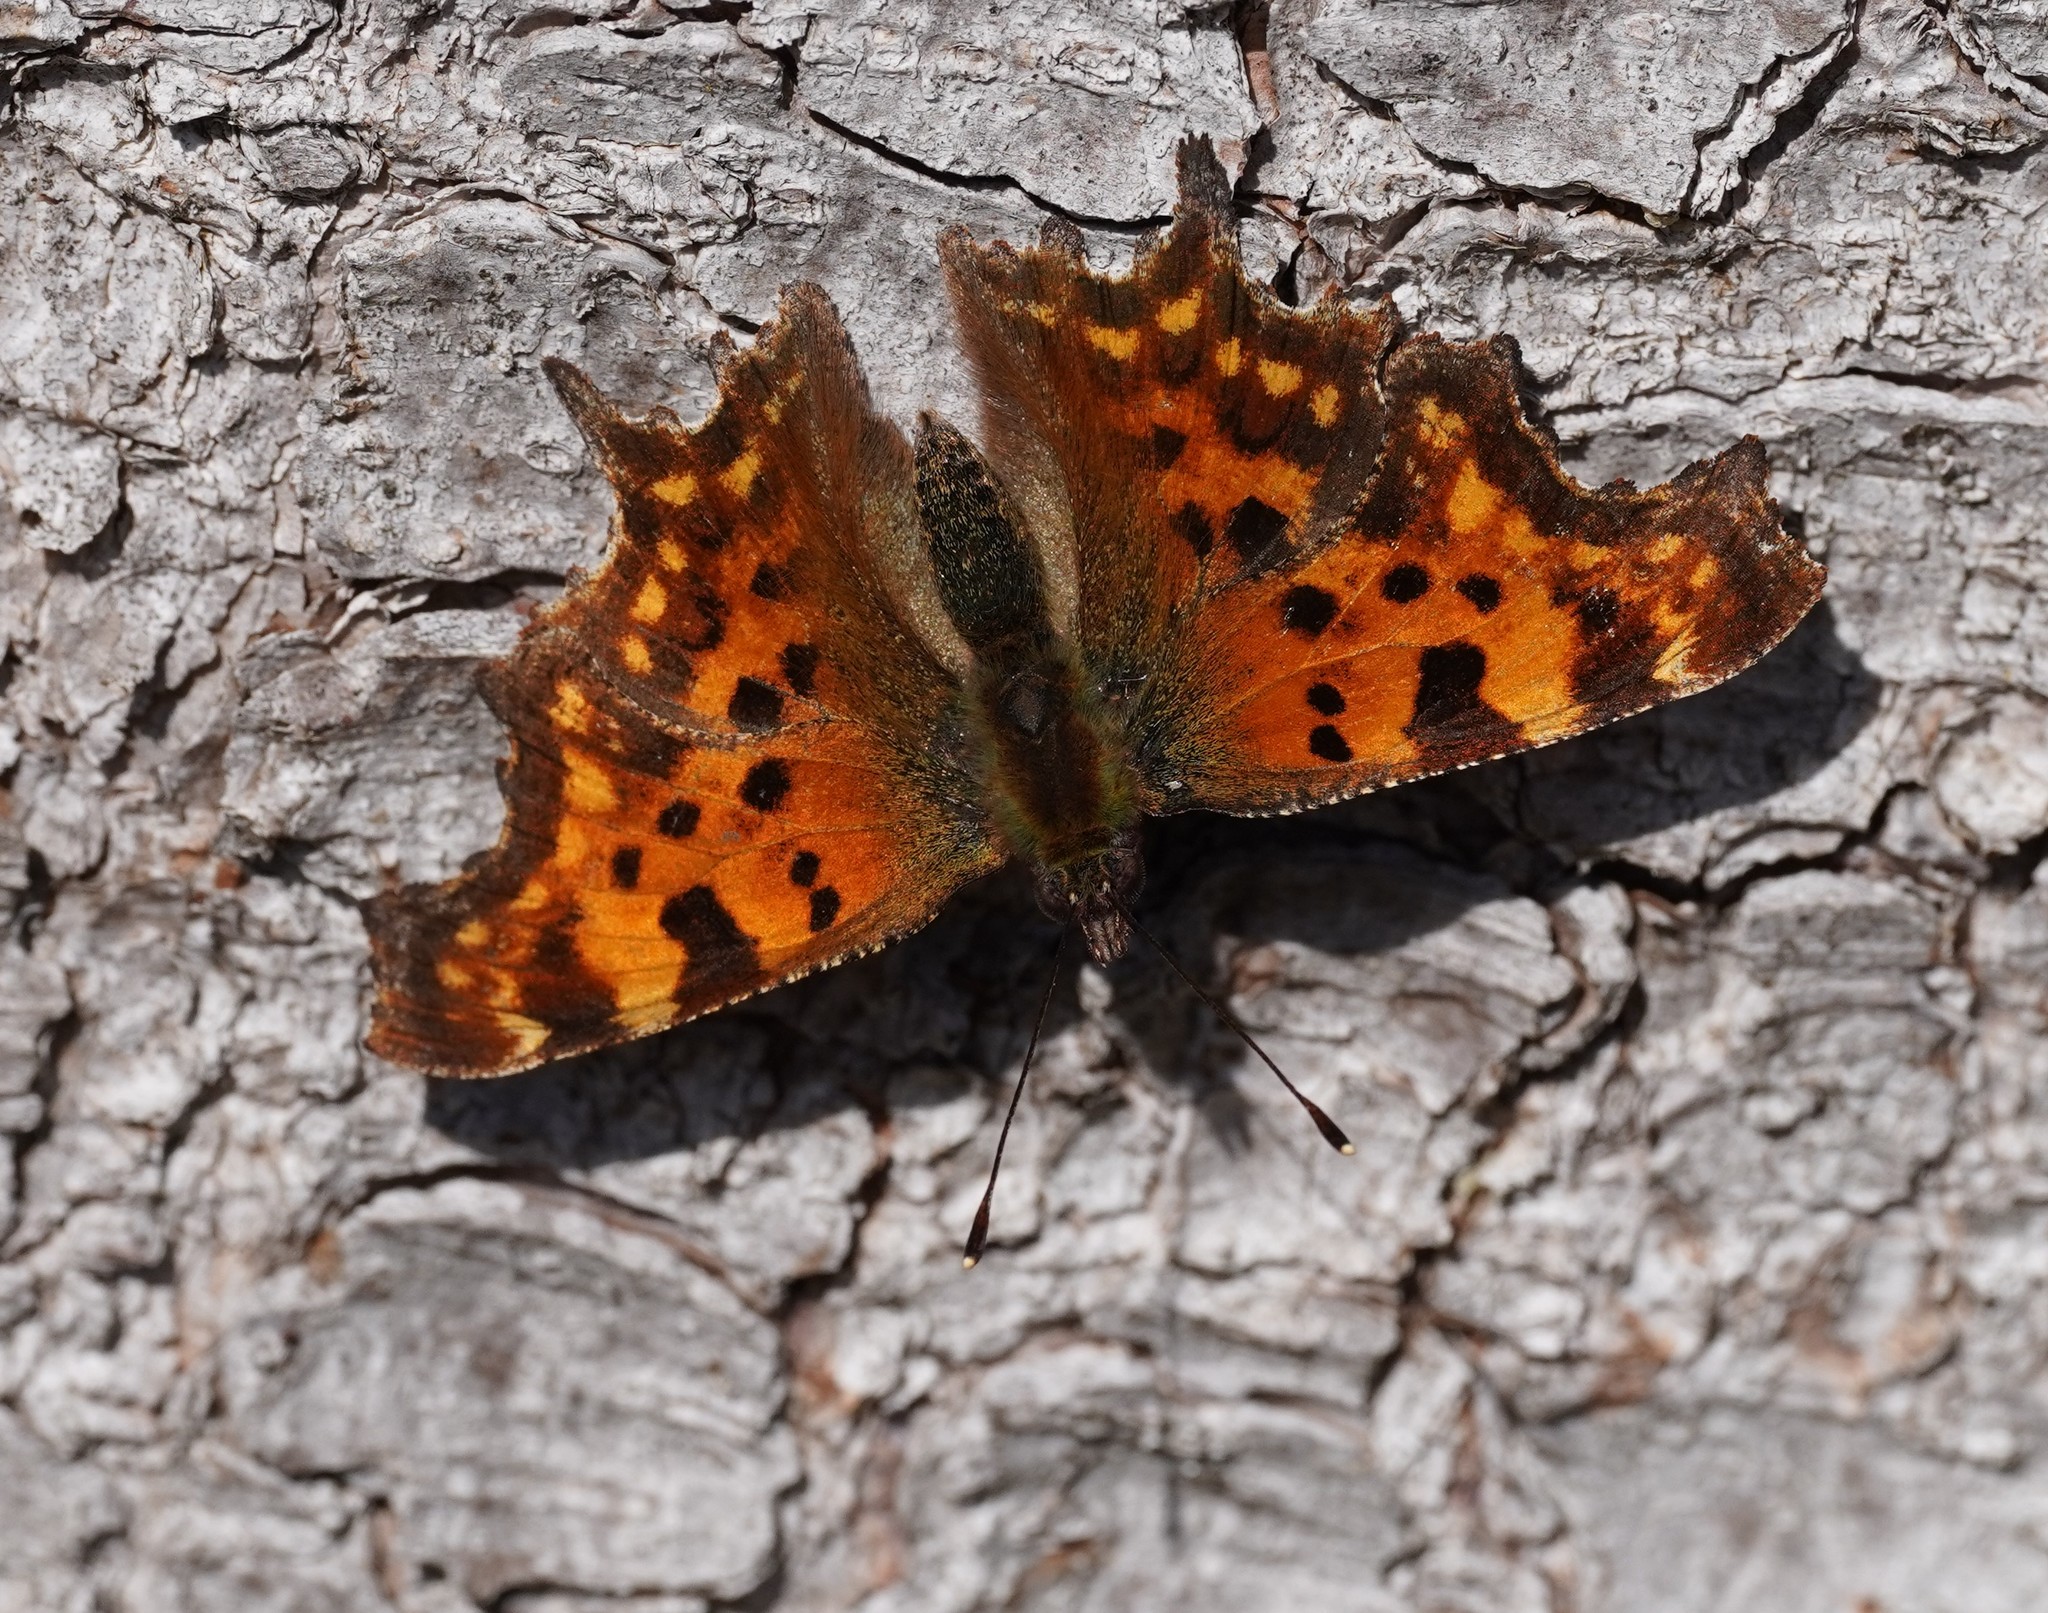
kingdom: Animalia
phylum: Arthropoda
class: Insecta
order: Lepidoptera
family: Nymphalidae
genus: Polygonia
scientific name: Polygonia c-album
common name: Comma
